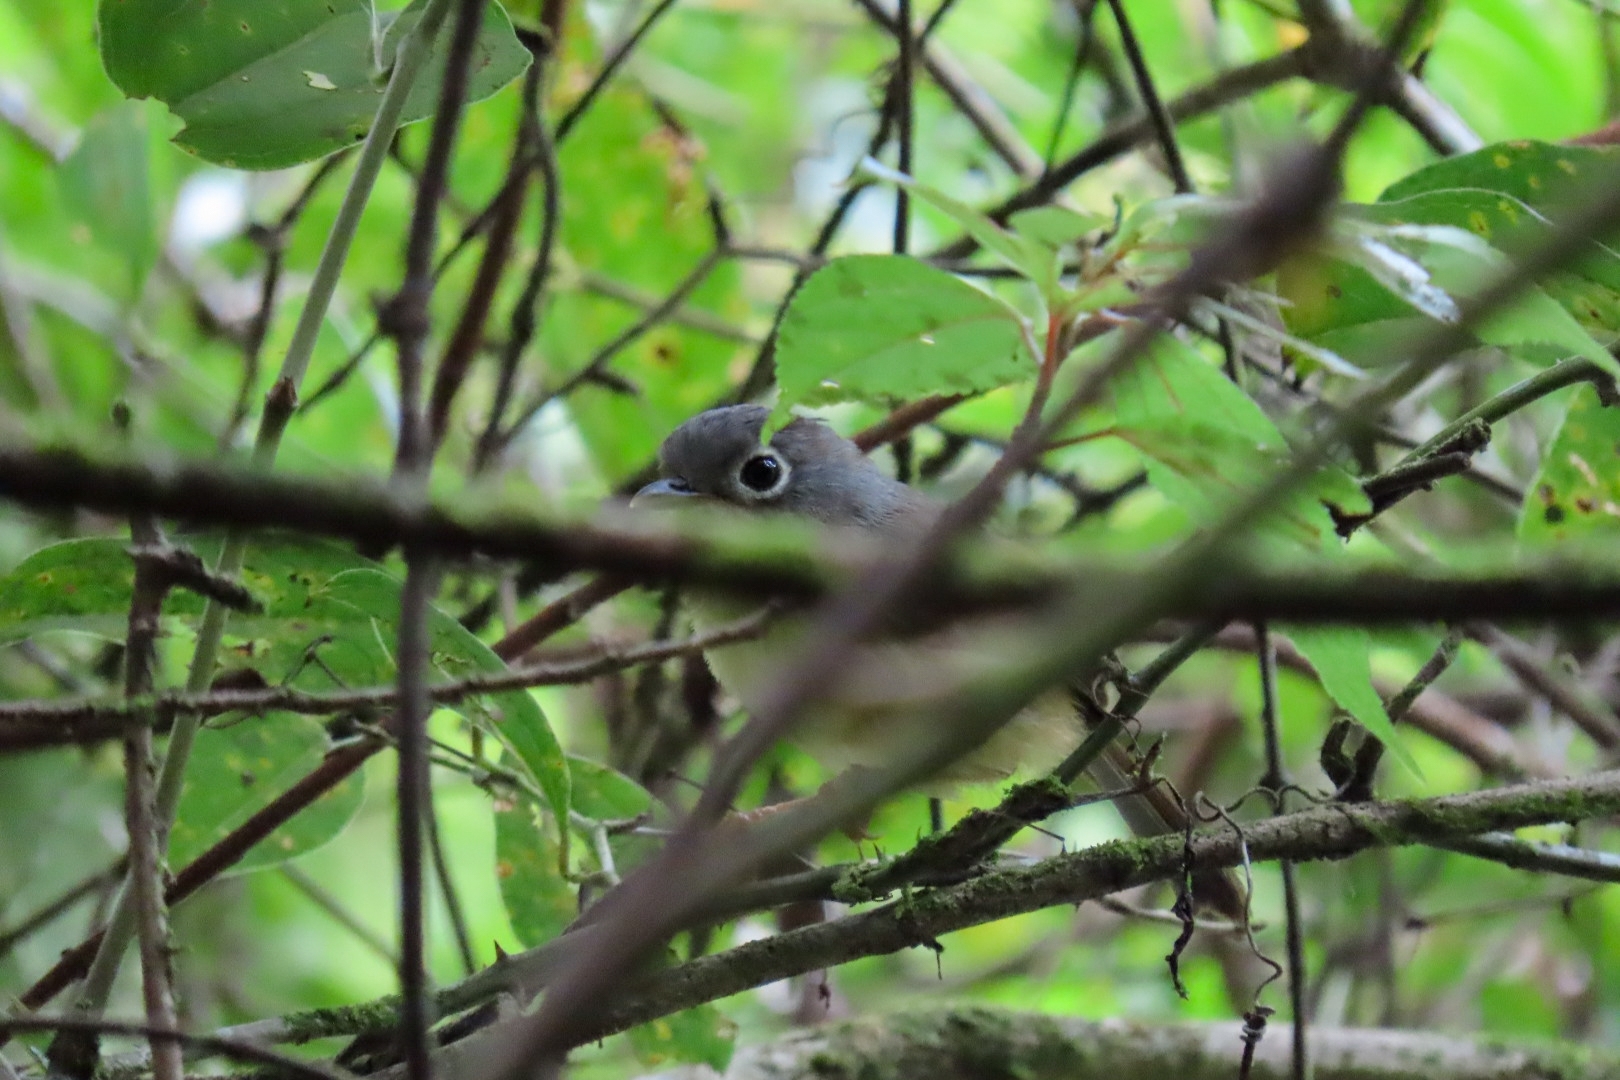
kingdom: Animalia
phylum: Chordata
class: Aves
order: Passeriformes
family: Pellorneidae
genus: Alcippe
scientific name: Alcippe morrisonia
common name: Grey-cheeked fulvetta
